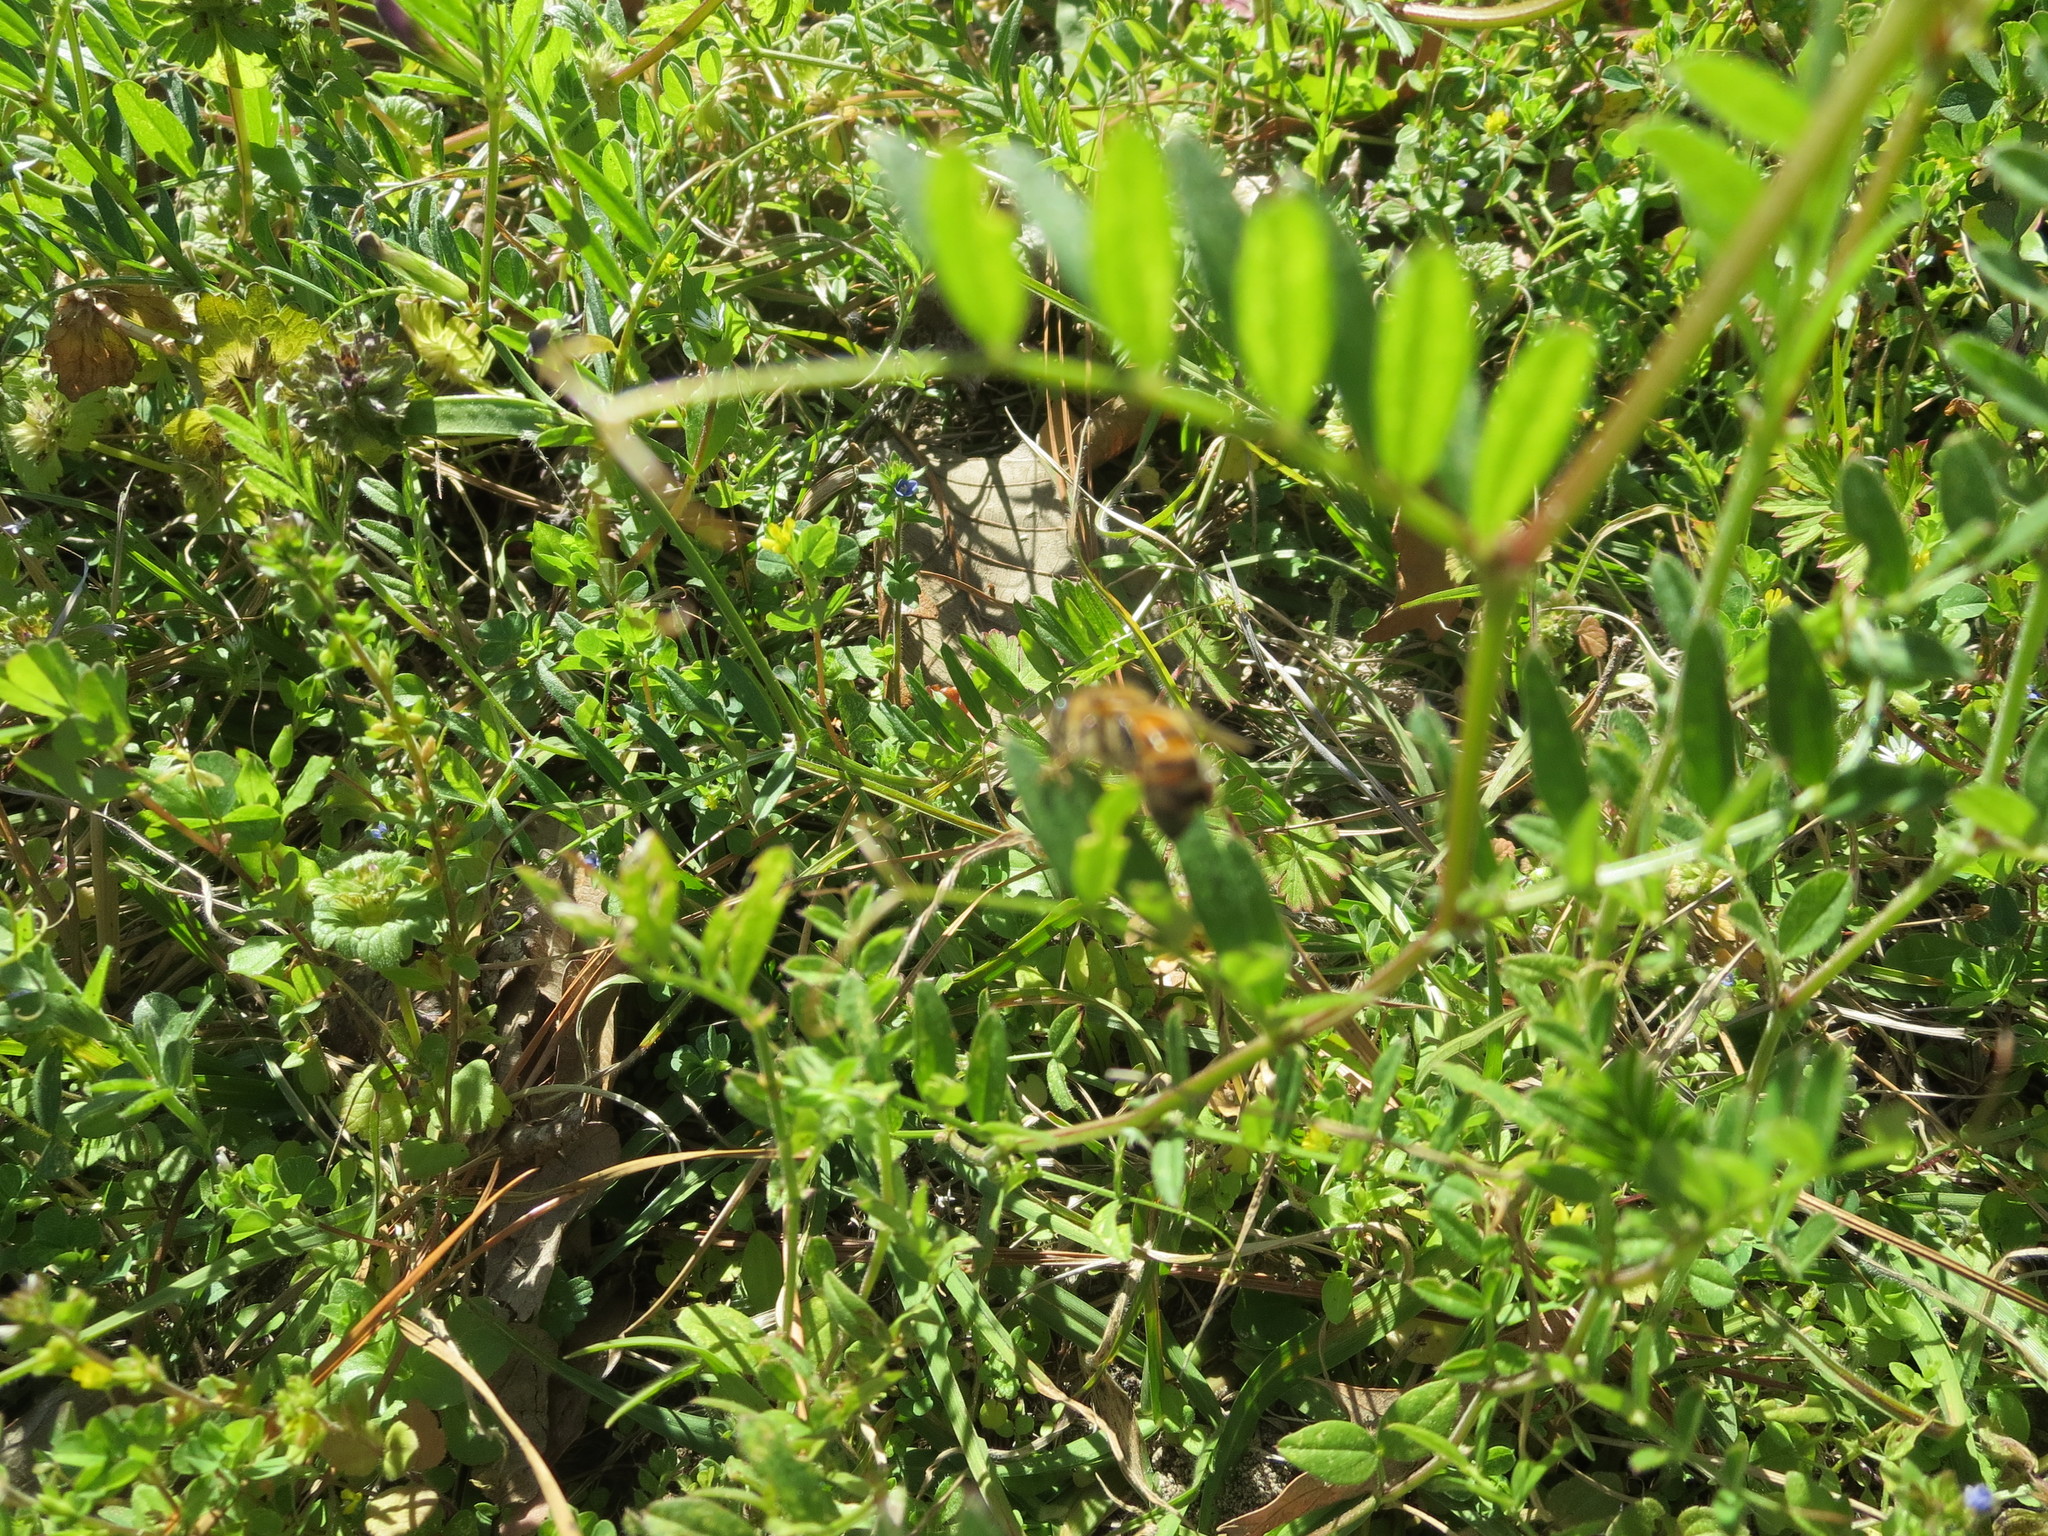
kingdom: Animalia
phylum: Arthropoda
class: Insecta
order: Hymenoptera
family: Apidae
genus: Apis
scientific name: Apis mellifera
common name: Honey bee
